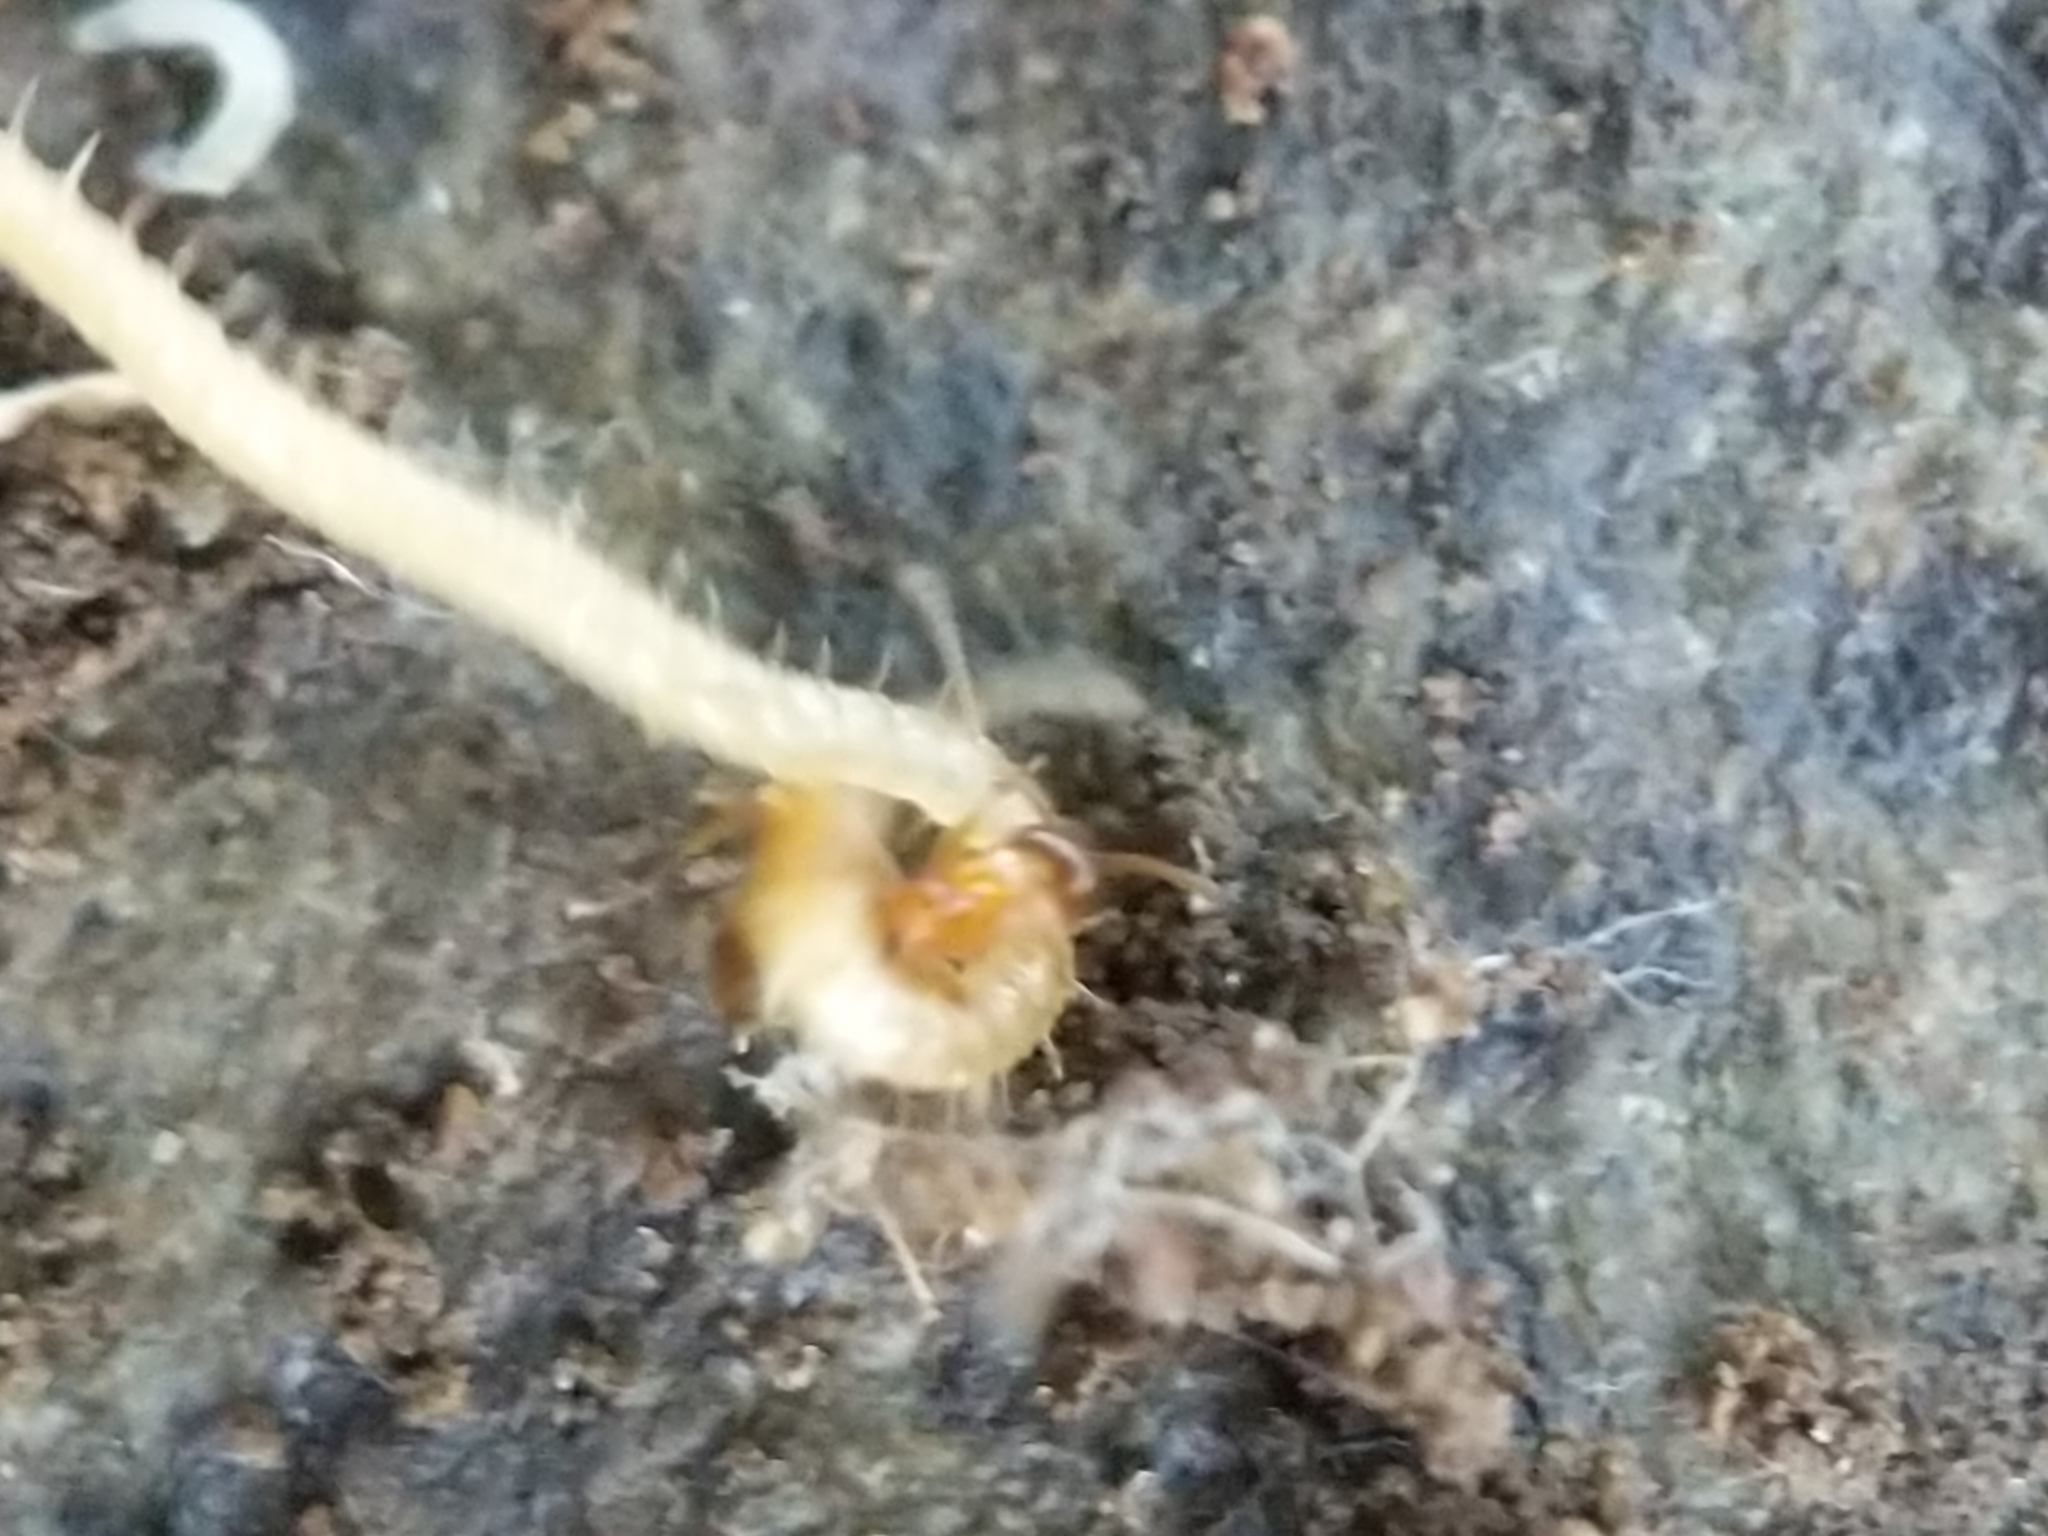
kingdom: Animalia
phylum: Arthropoda
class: Insecta
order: Hymenoptera
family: Formicidae
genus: Paratrechina
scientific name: Paratrechina flavipes
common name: Eastern asian formicine ant
